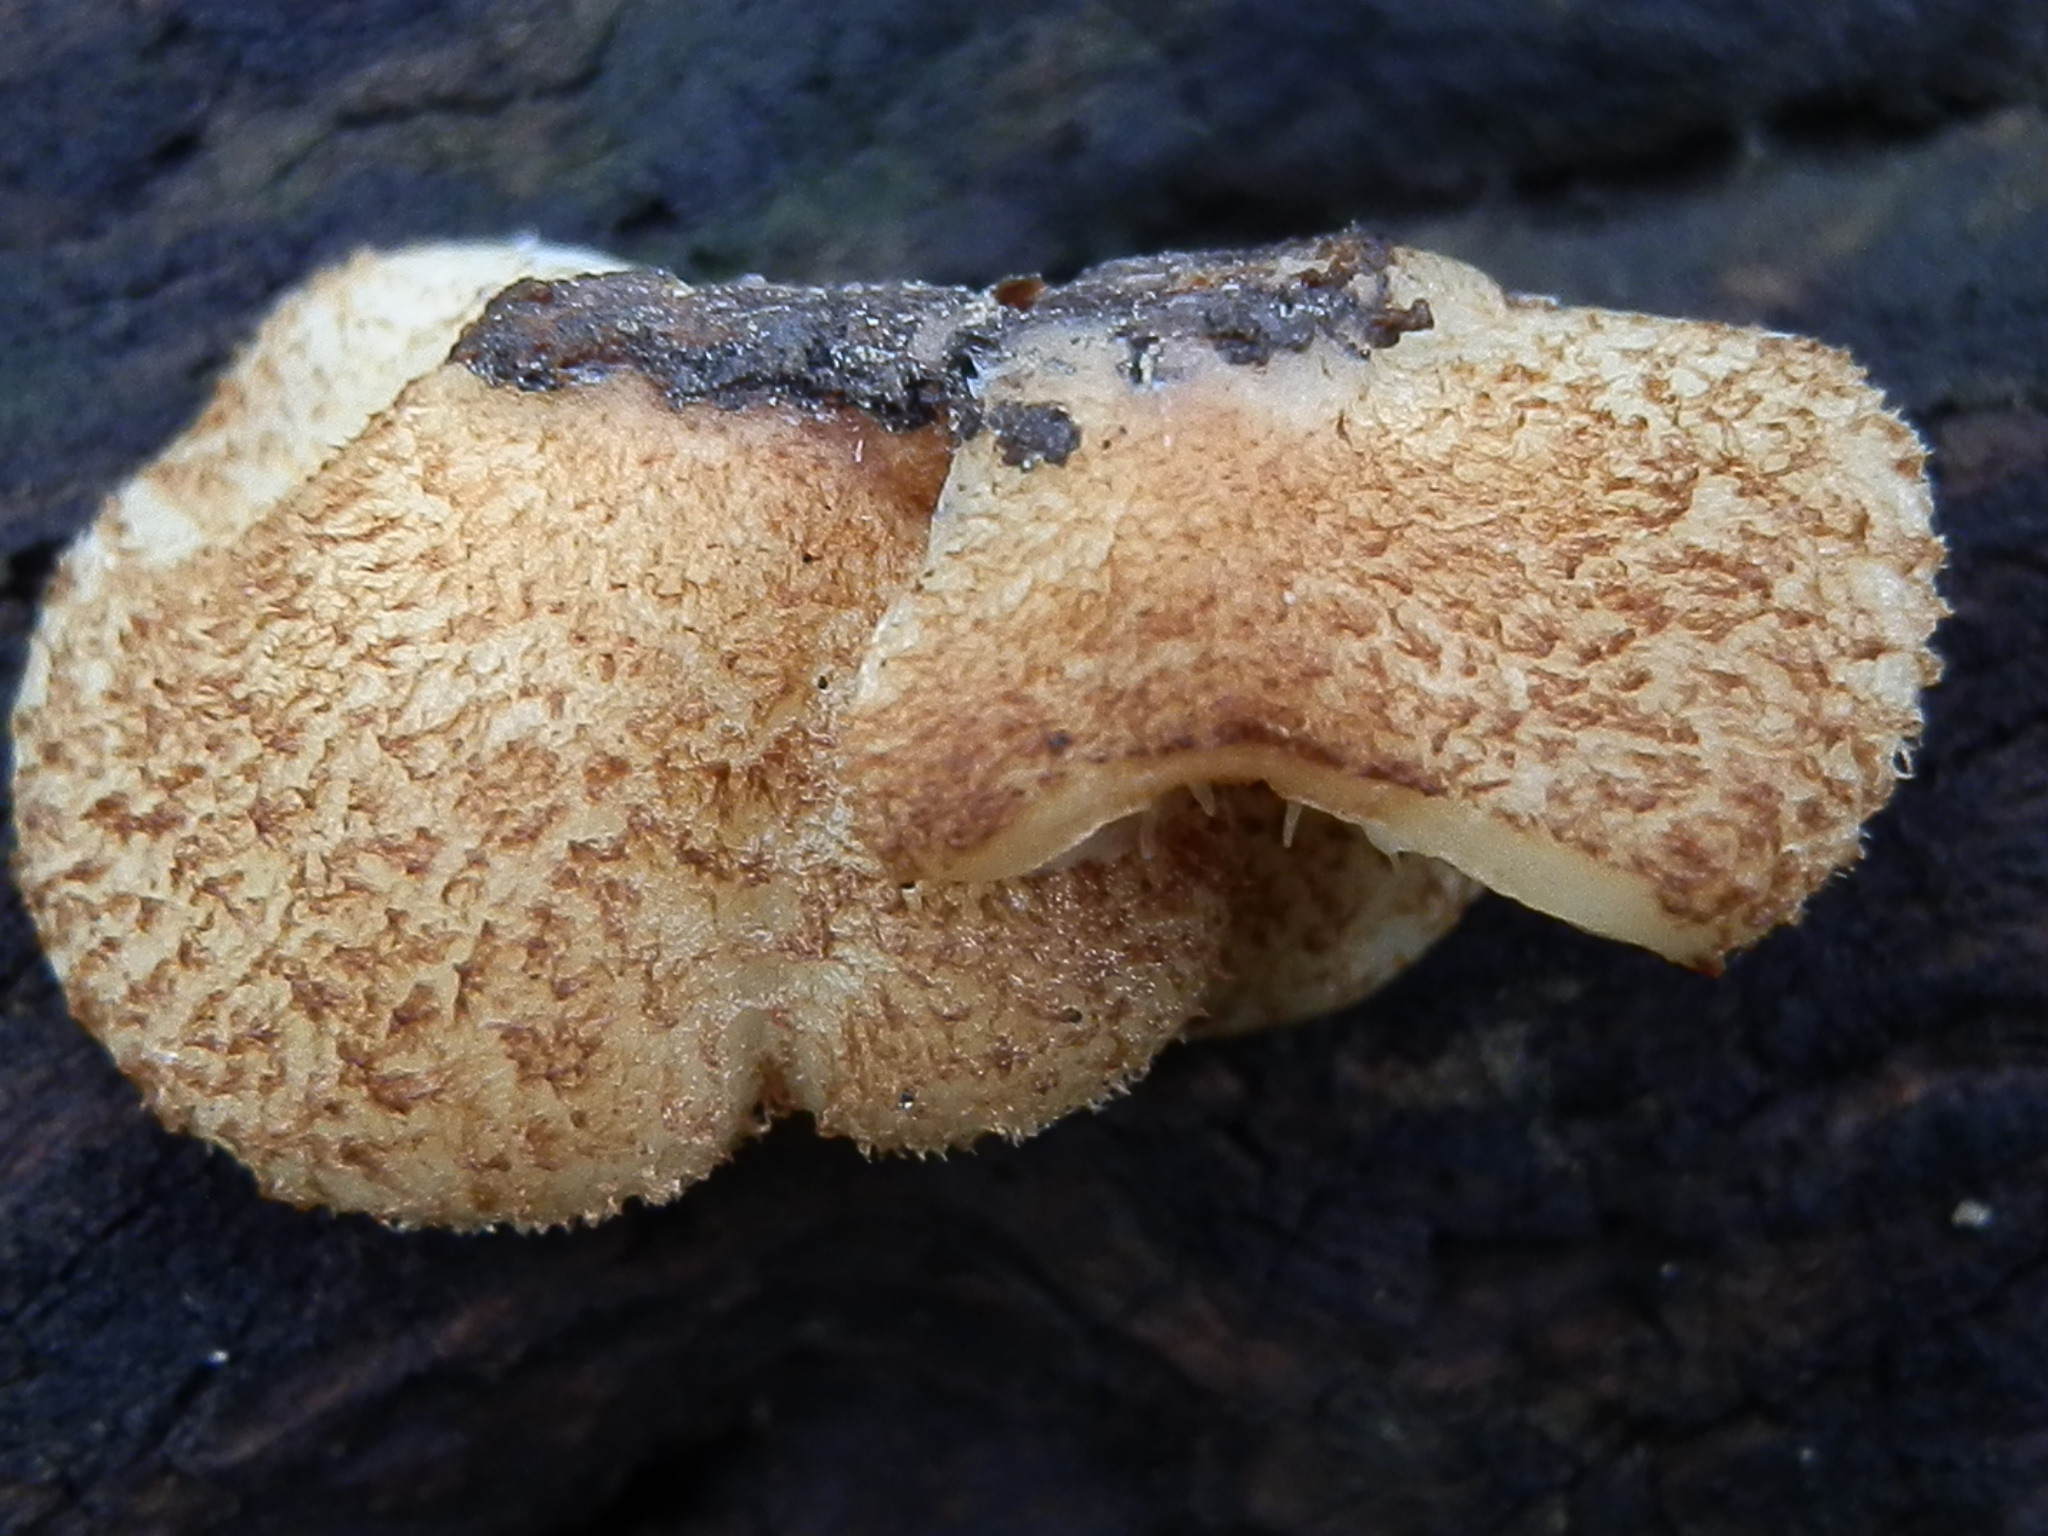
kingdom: Fungi
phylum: Basidiomycota
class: Agaricomycetes
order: Agaricales
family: Crepidotaceae
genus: Crepidotus
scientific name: Crepidotus calolepis
